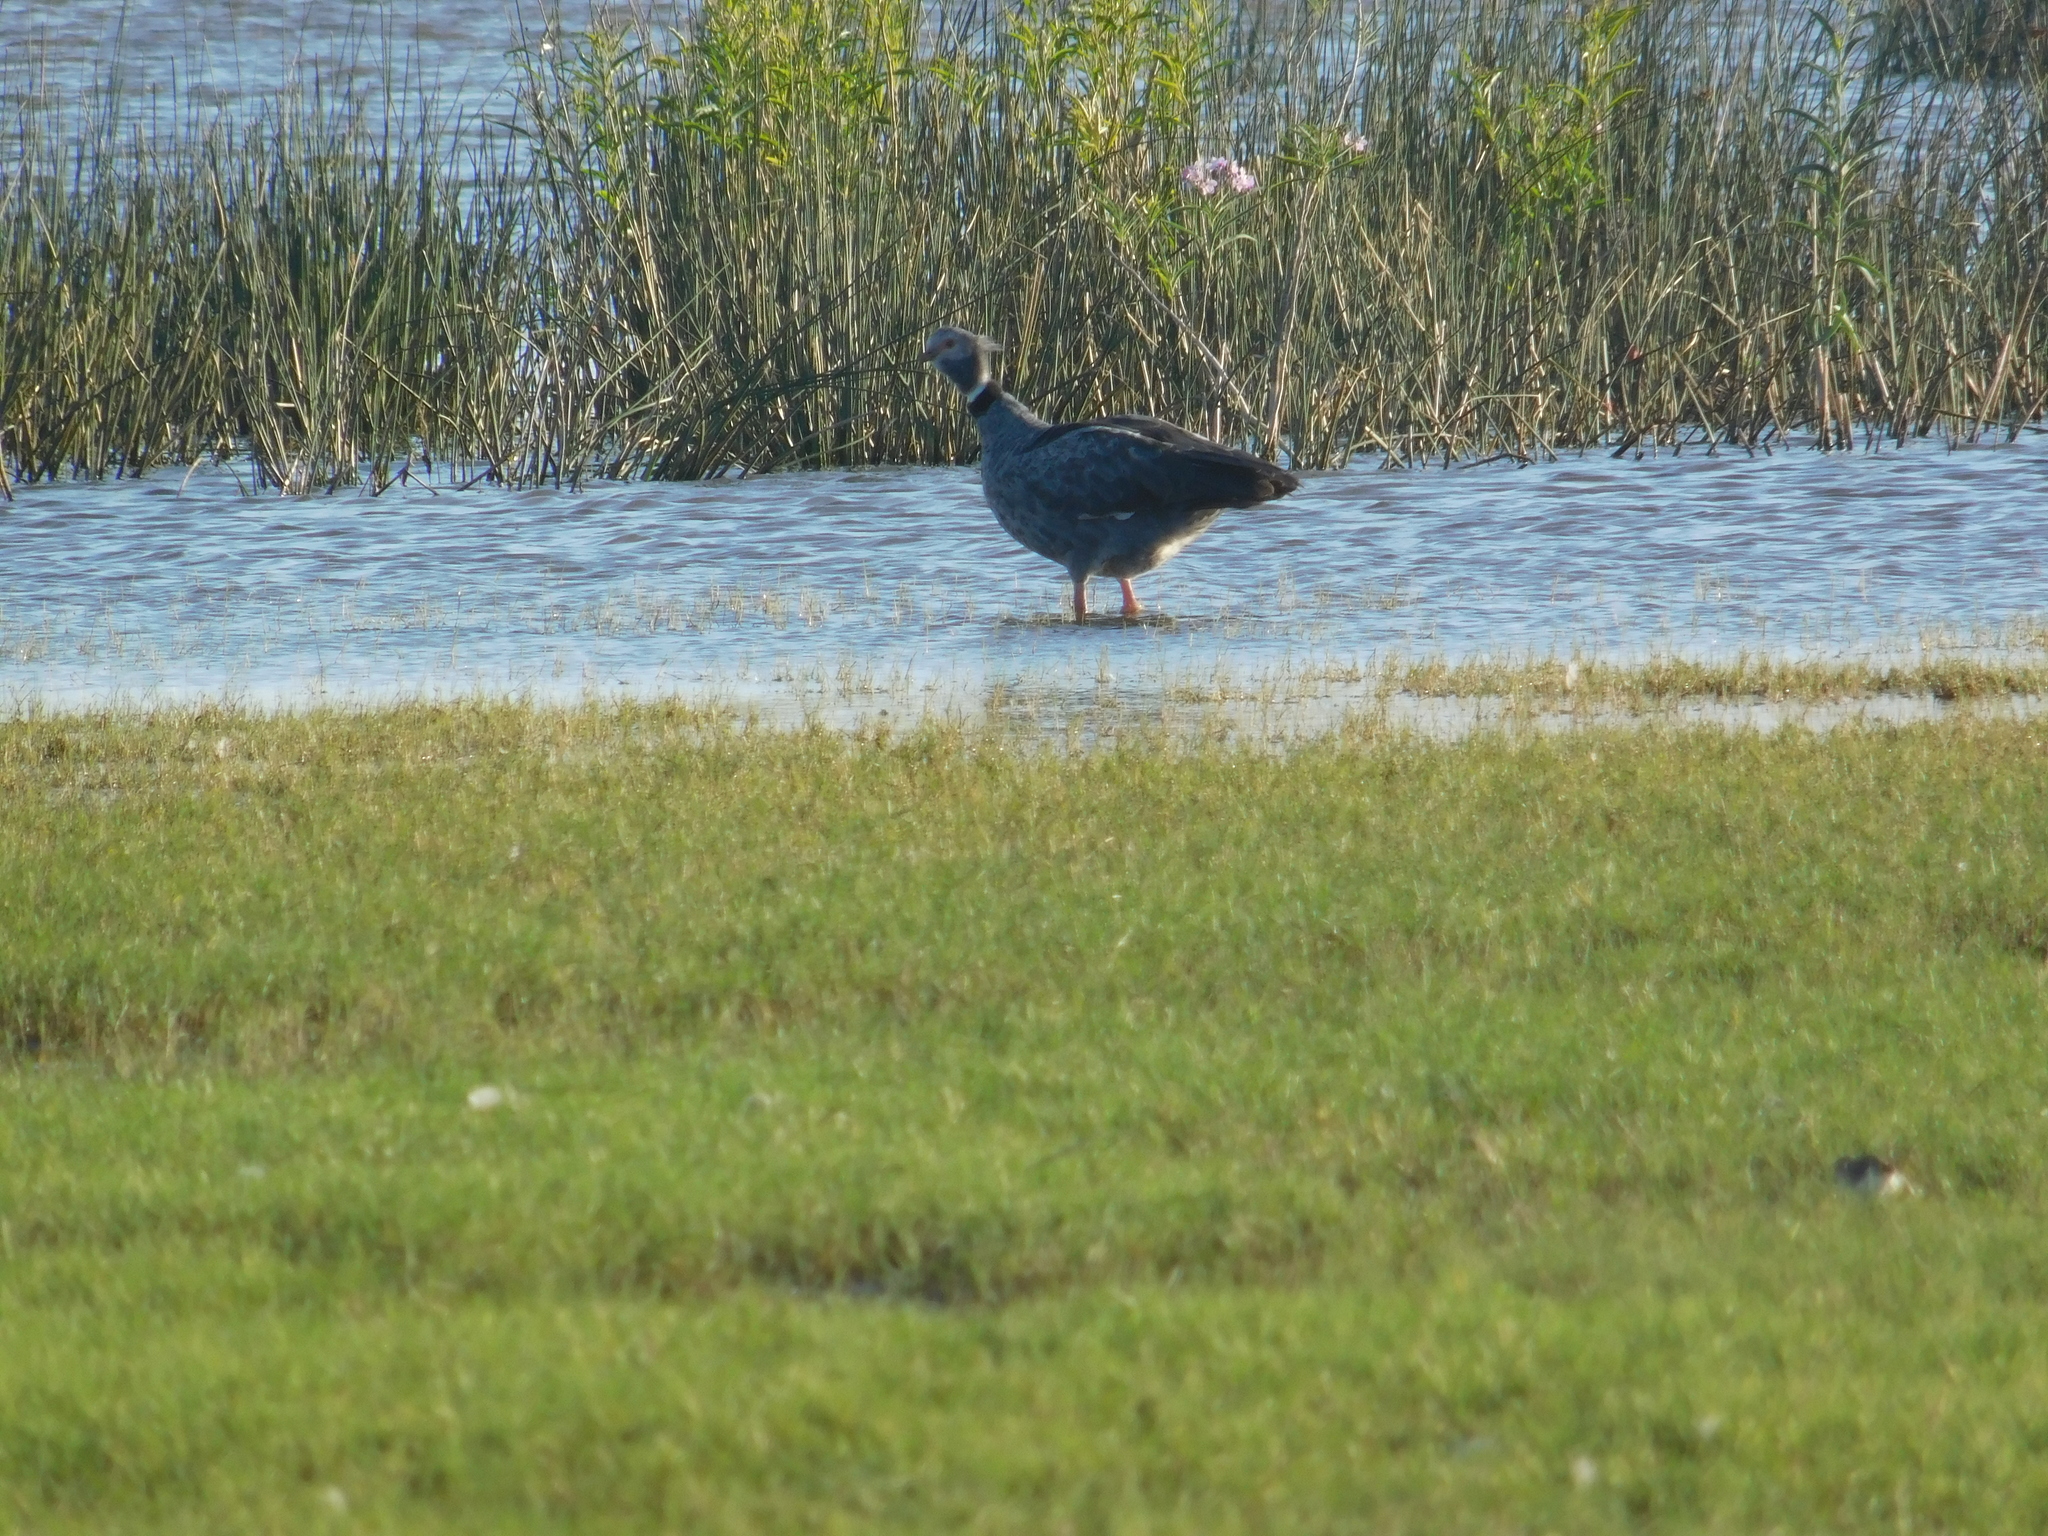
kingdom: Animalia
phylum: Chordata
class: Aves
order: Anseriformes
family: Anhimidae
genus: Chauna
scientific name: Chauna torquata
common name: Southern screamer
